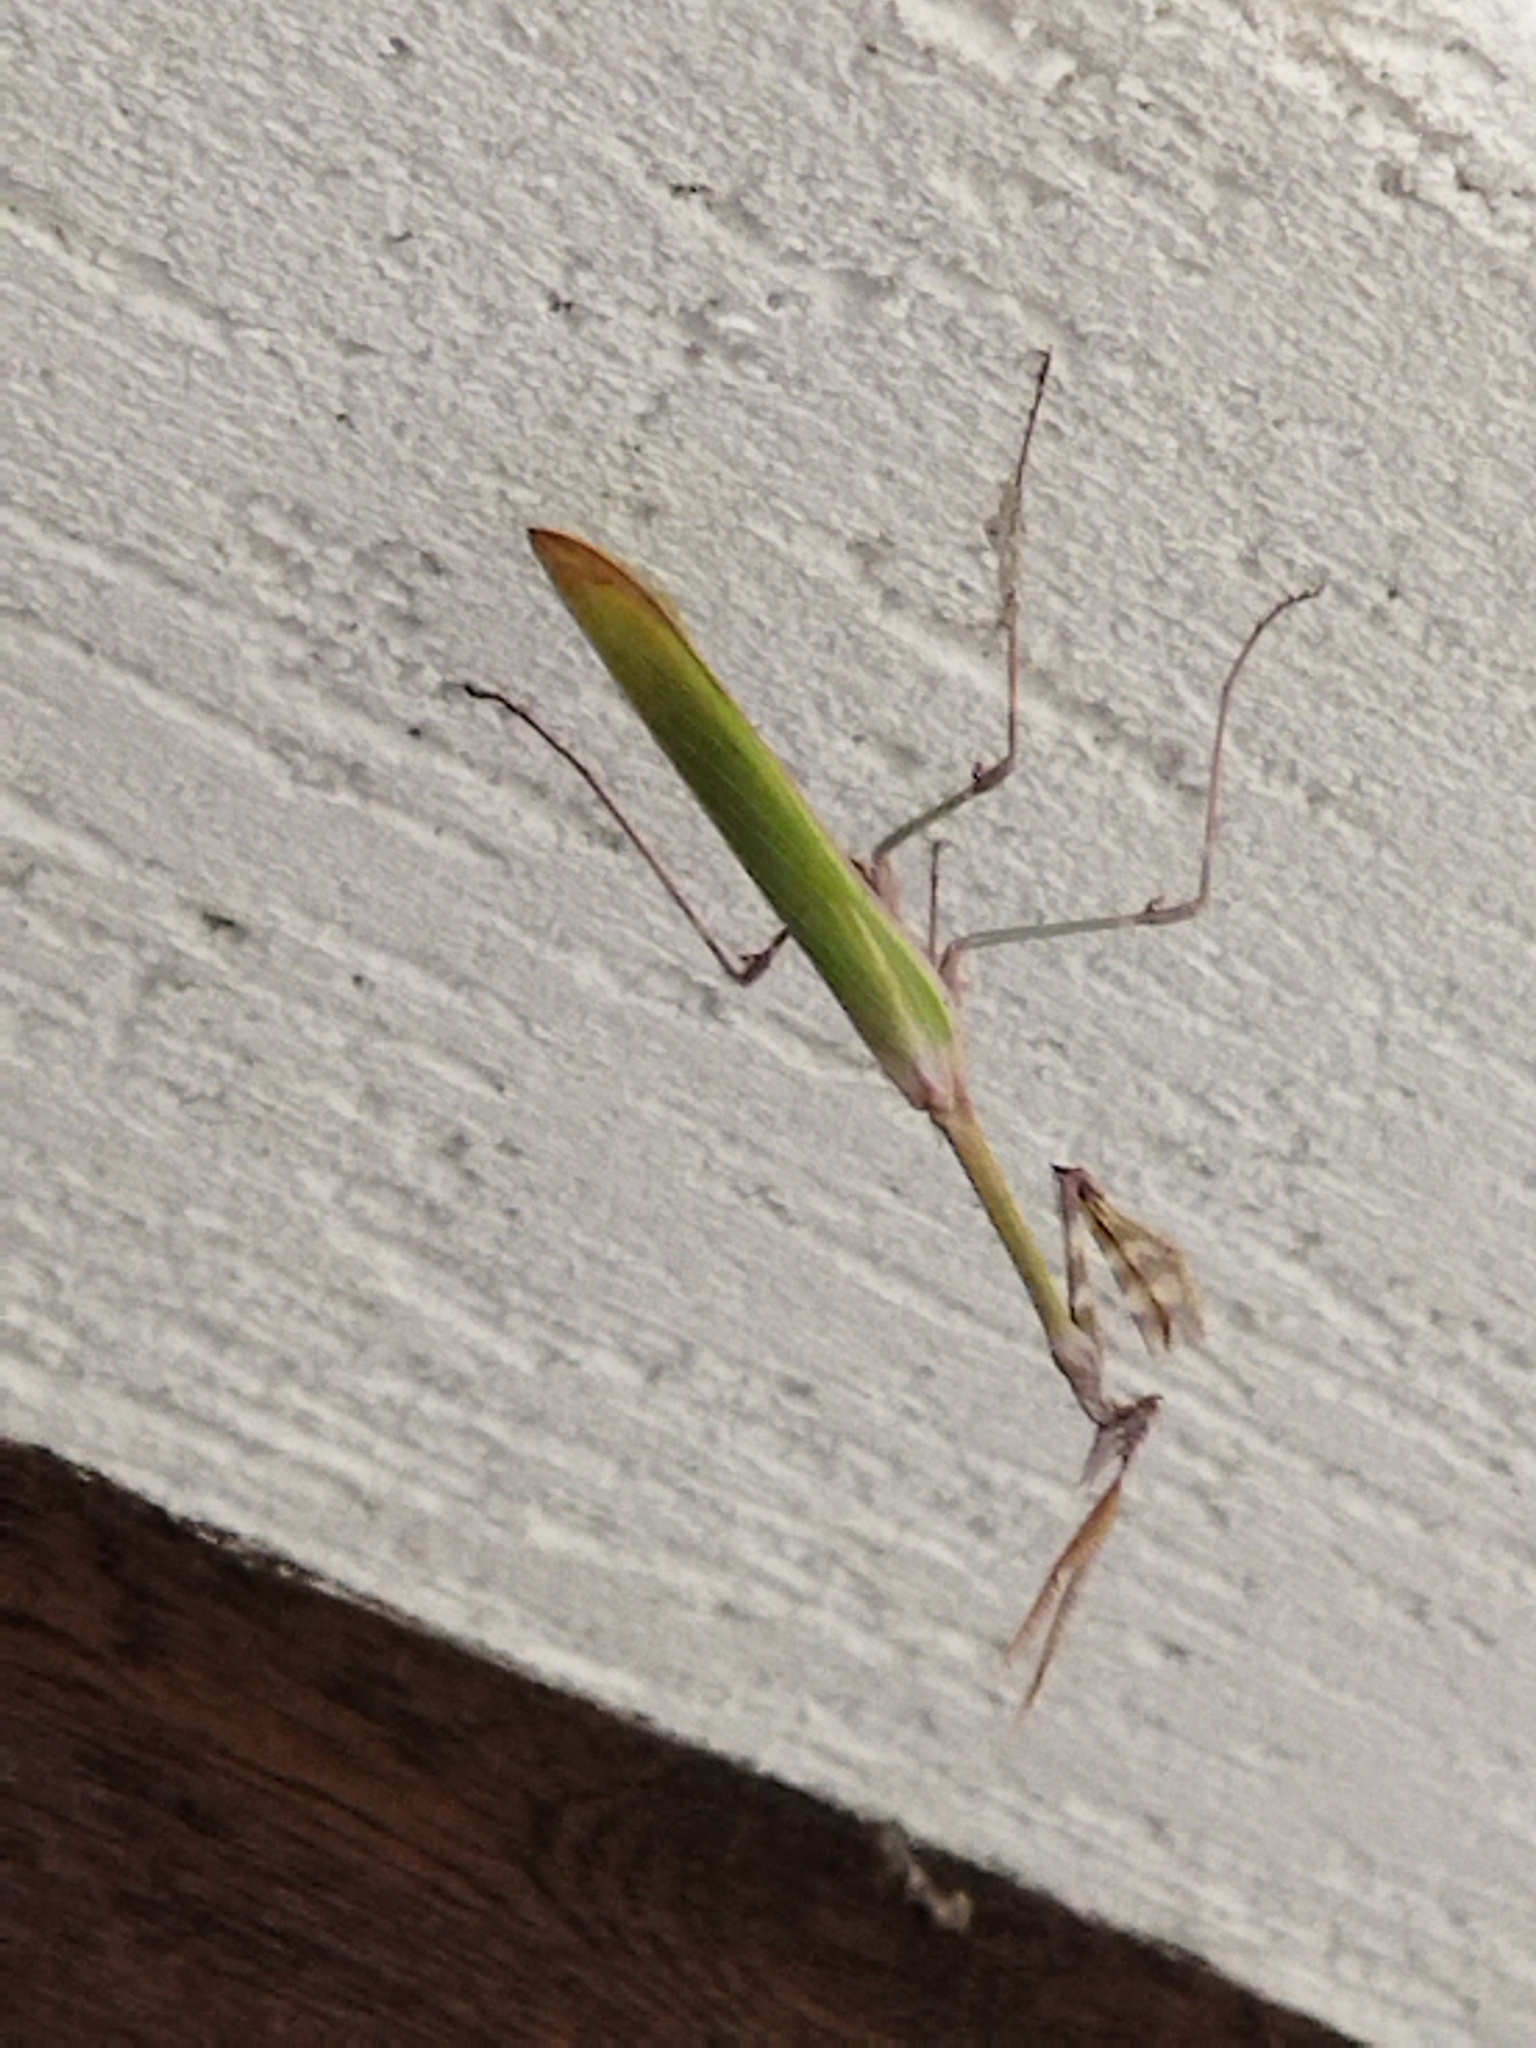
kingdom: Animalia
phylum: Arthropoda
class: Insecta
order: Mantodea
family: Empusidae
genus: Empusa
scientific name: Empusa fasciata
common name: Devil's mare
